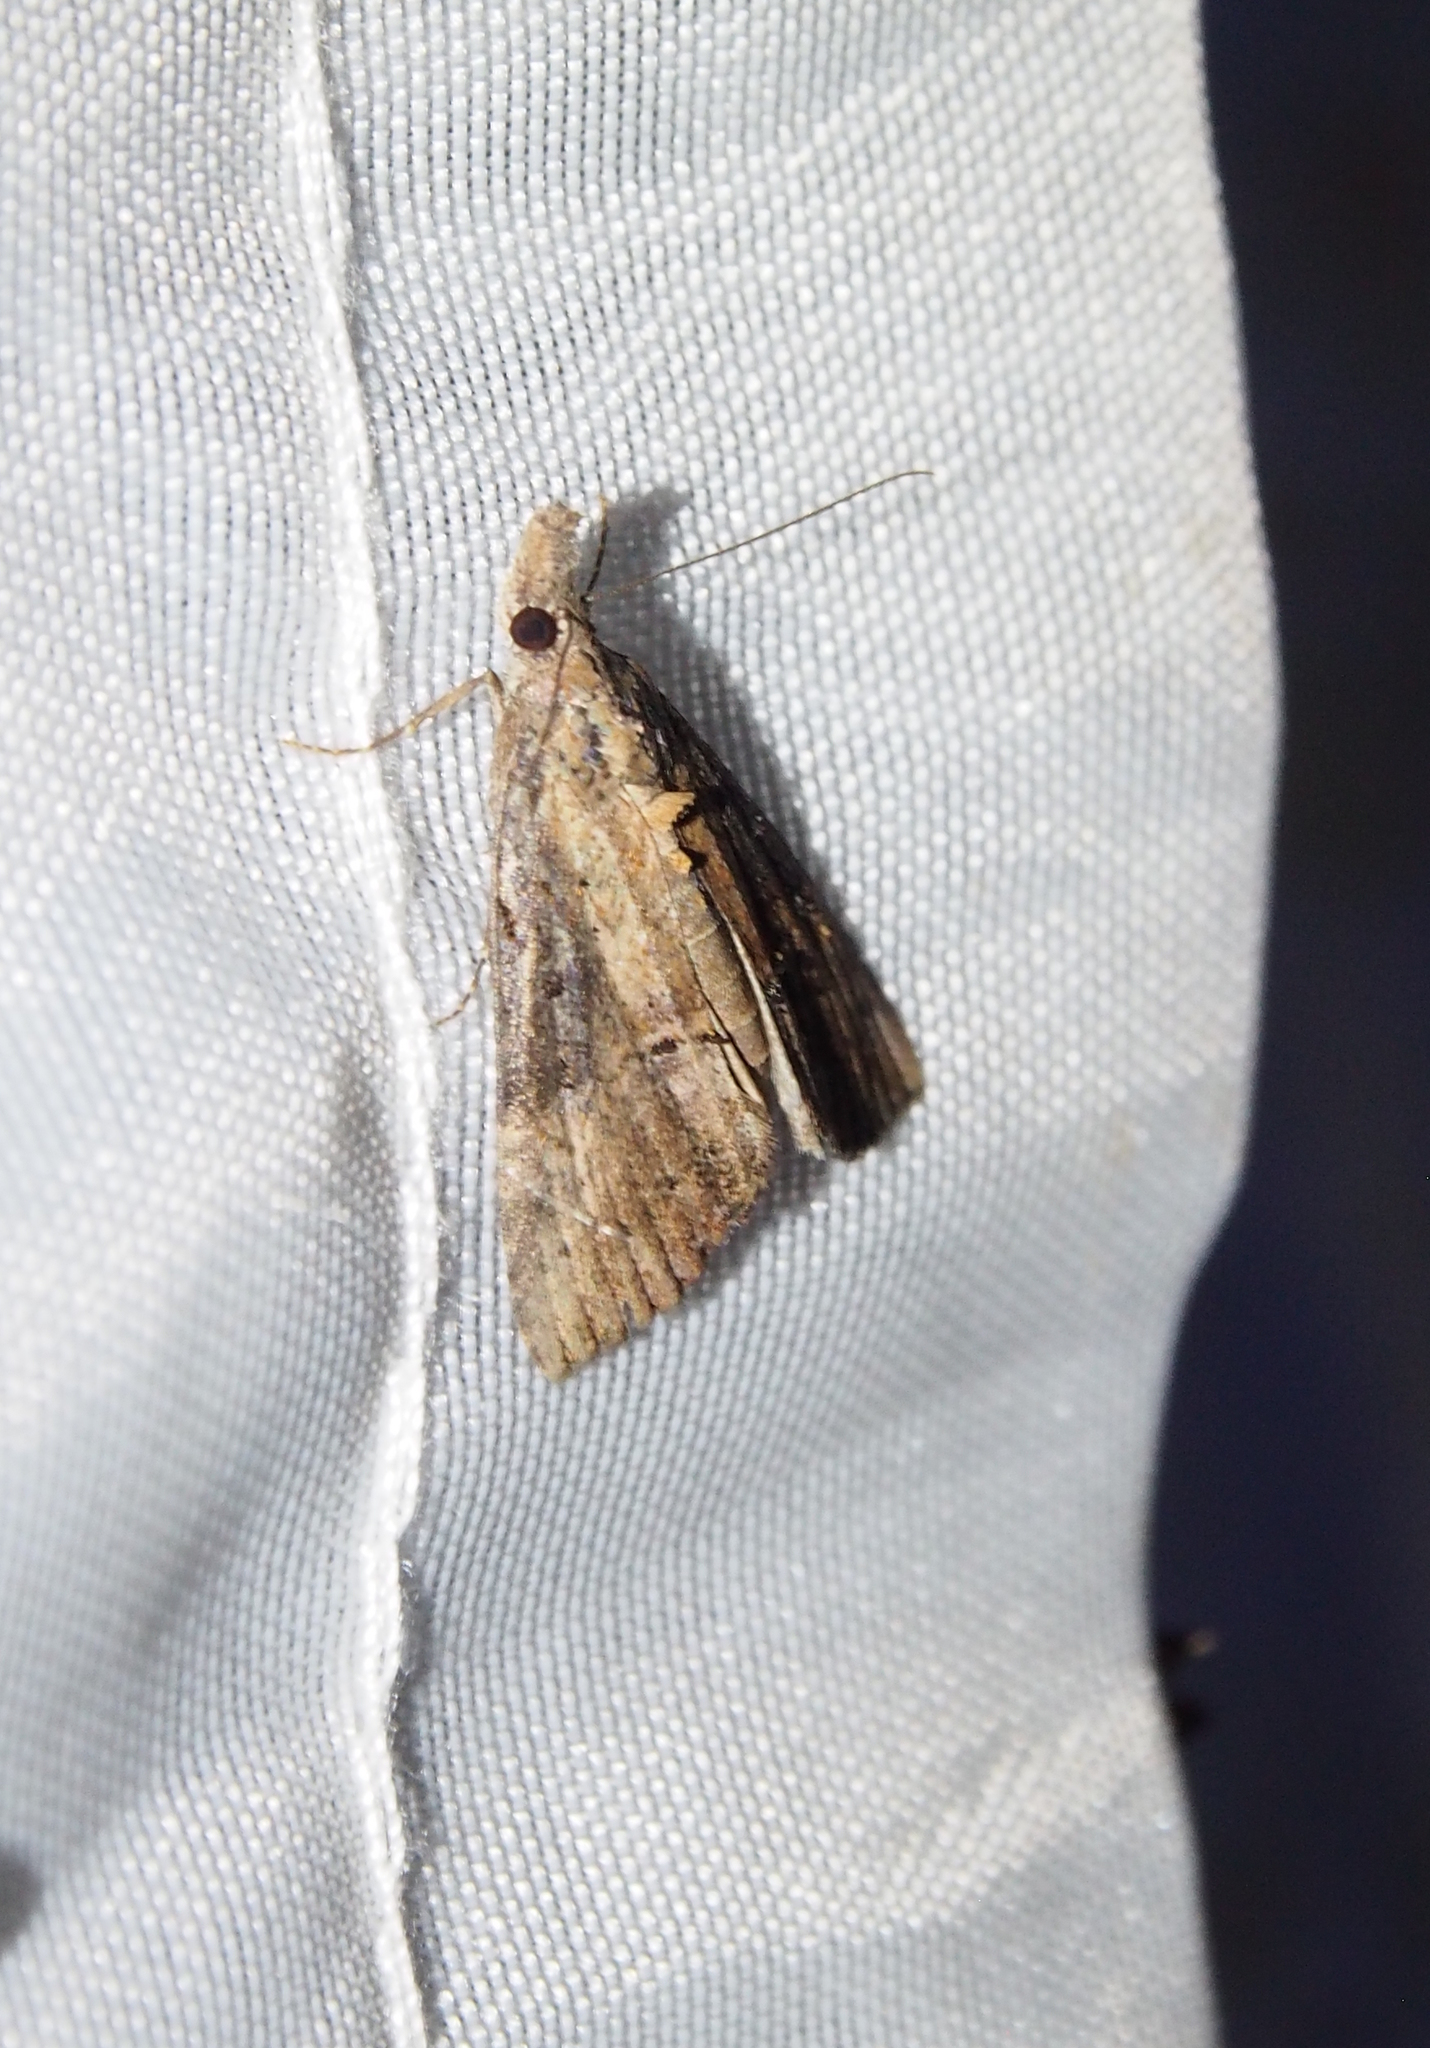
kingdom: Animalia
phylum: Arthropoda
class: Insecta
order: Lepidoptera
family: Erebidae
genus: Hypena
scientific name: Hypena scabra
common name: Green cloverworm
